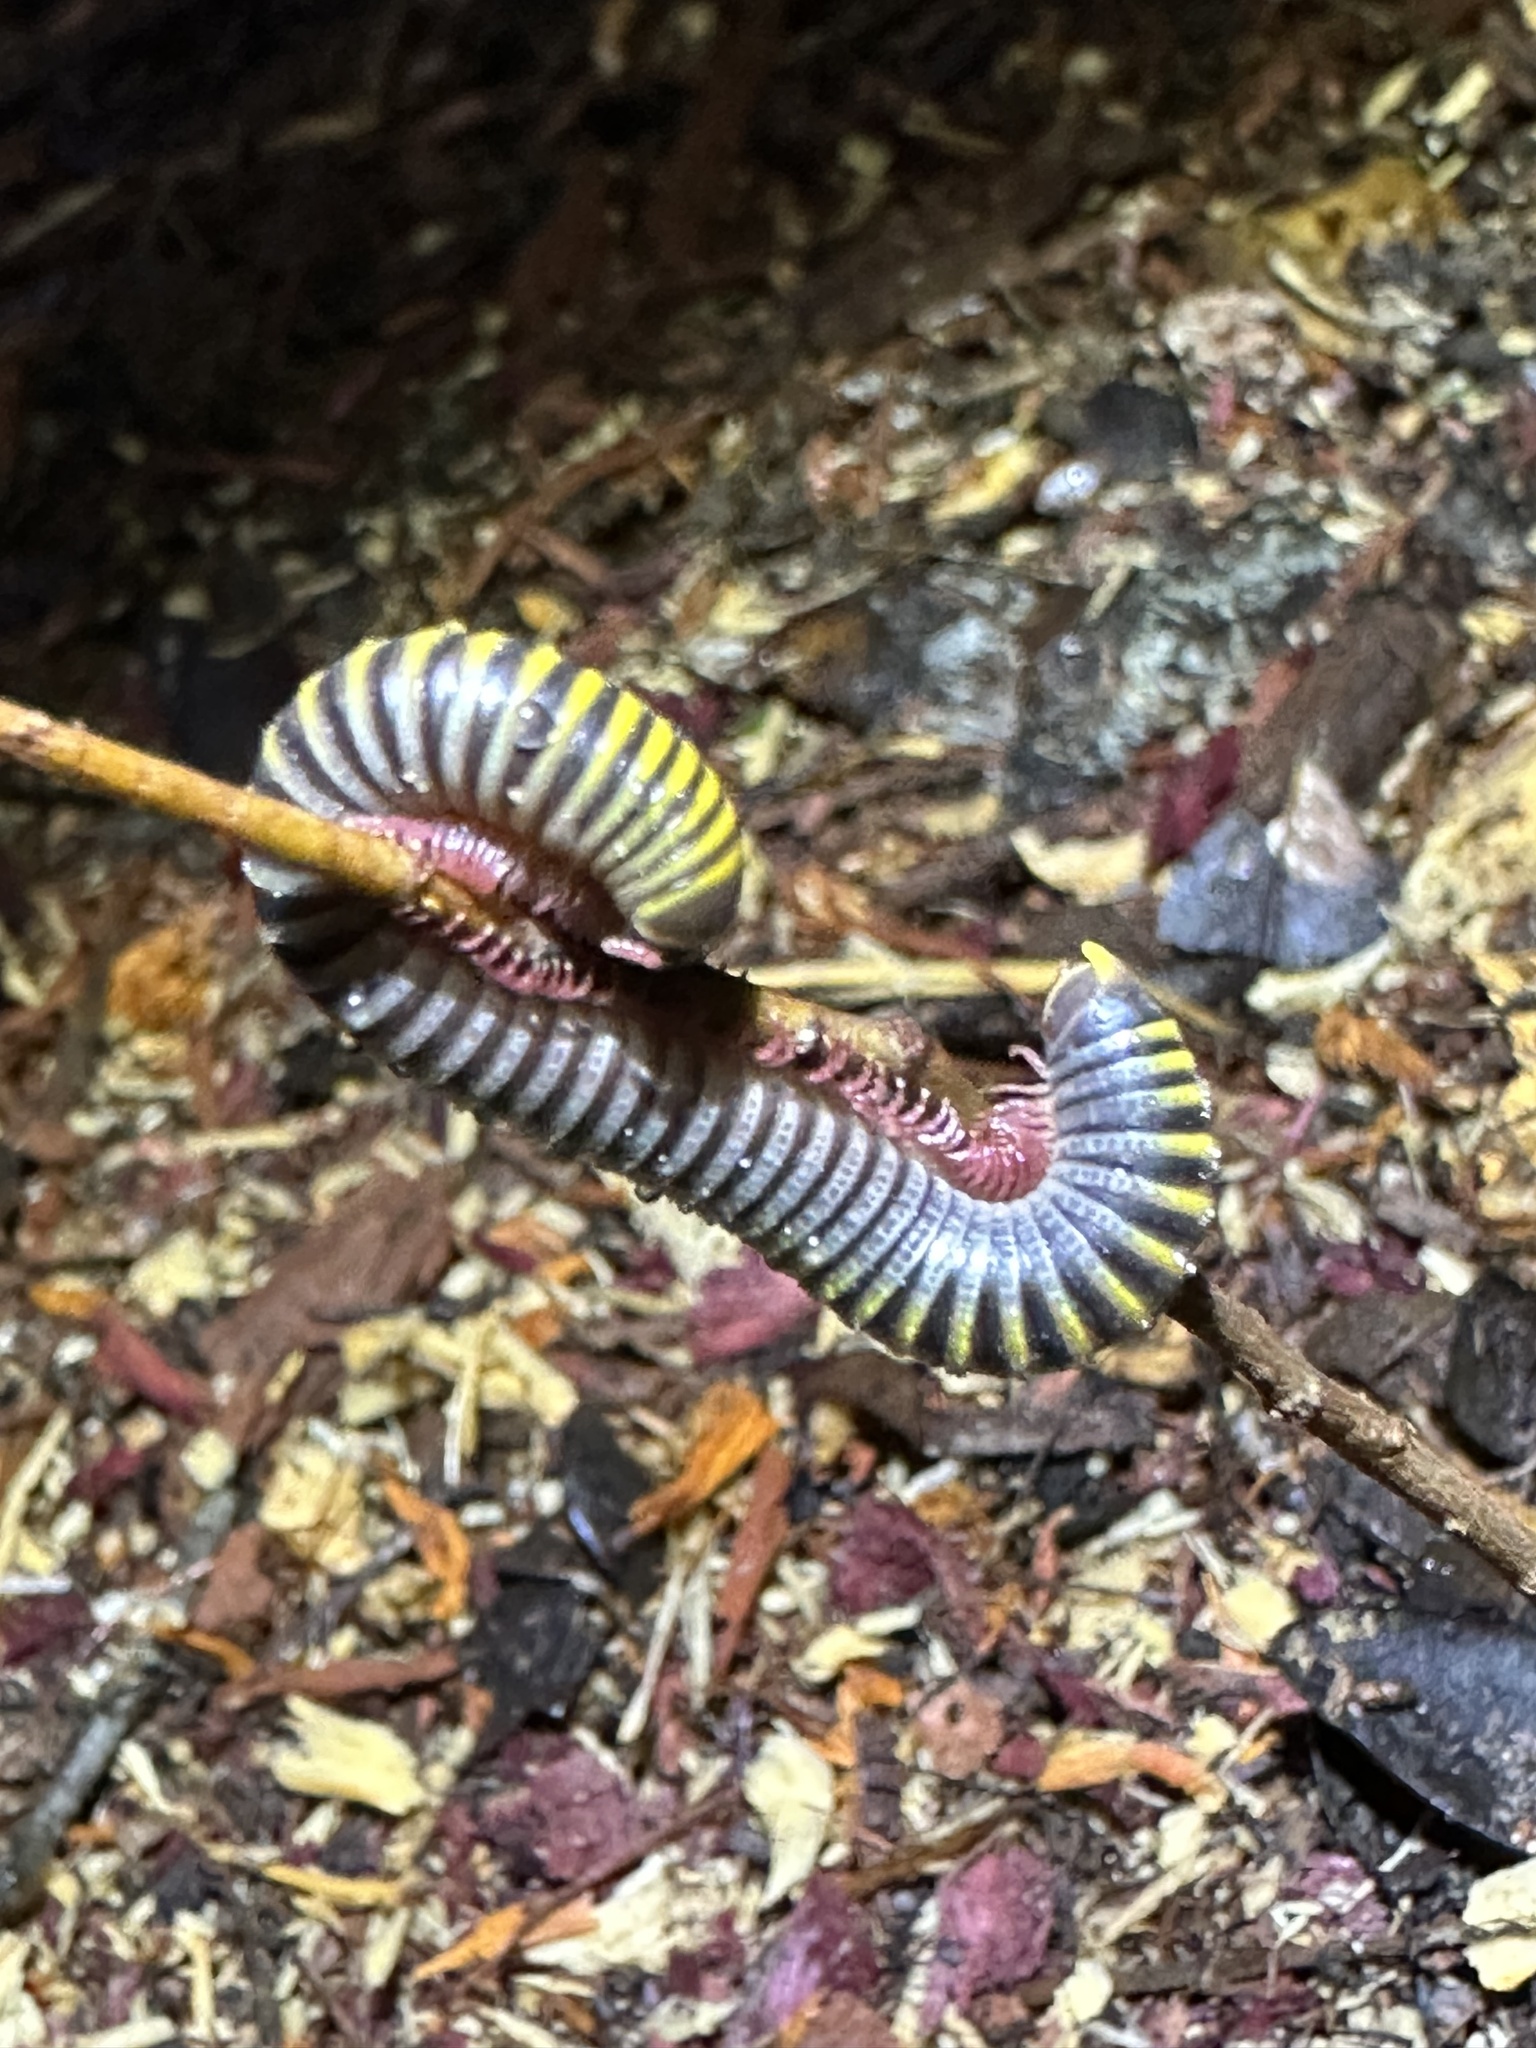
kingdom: Animalia
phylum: Arthropoda
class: Diplopoda
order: Spirobolida
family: Rhinocricidae
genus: Anadenobolus
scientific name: Anadenobolus monilicornis
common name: Caribbean millipede
